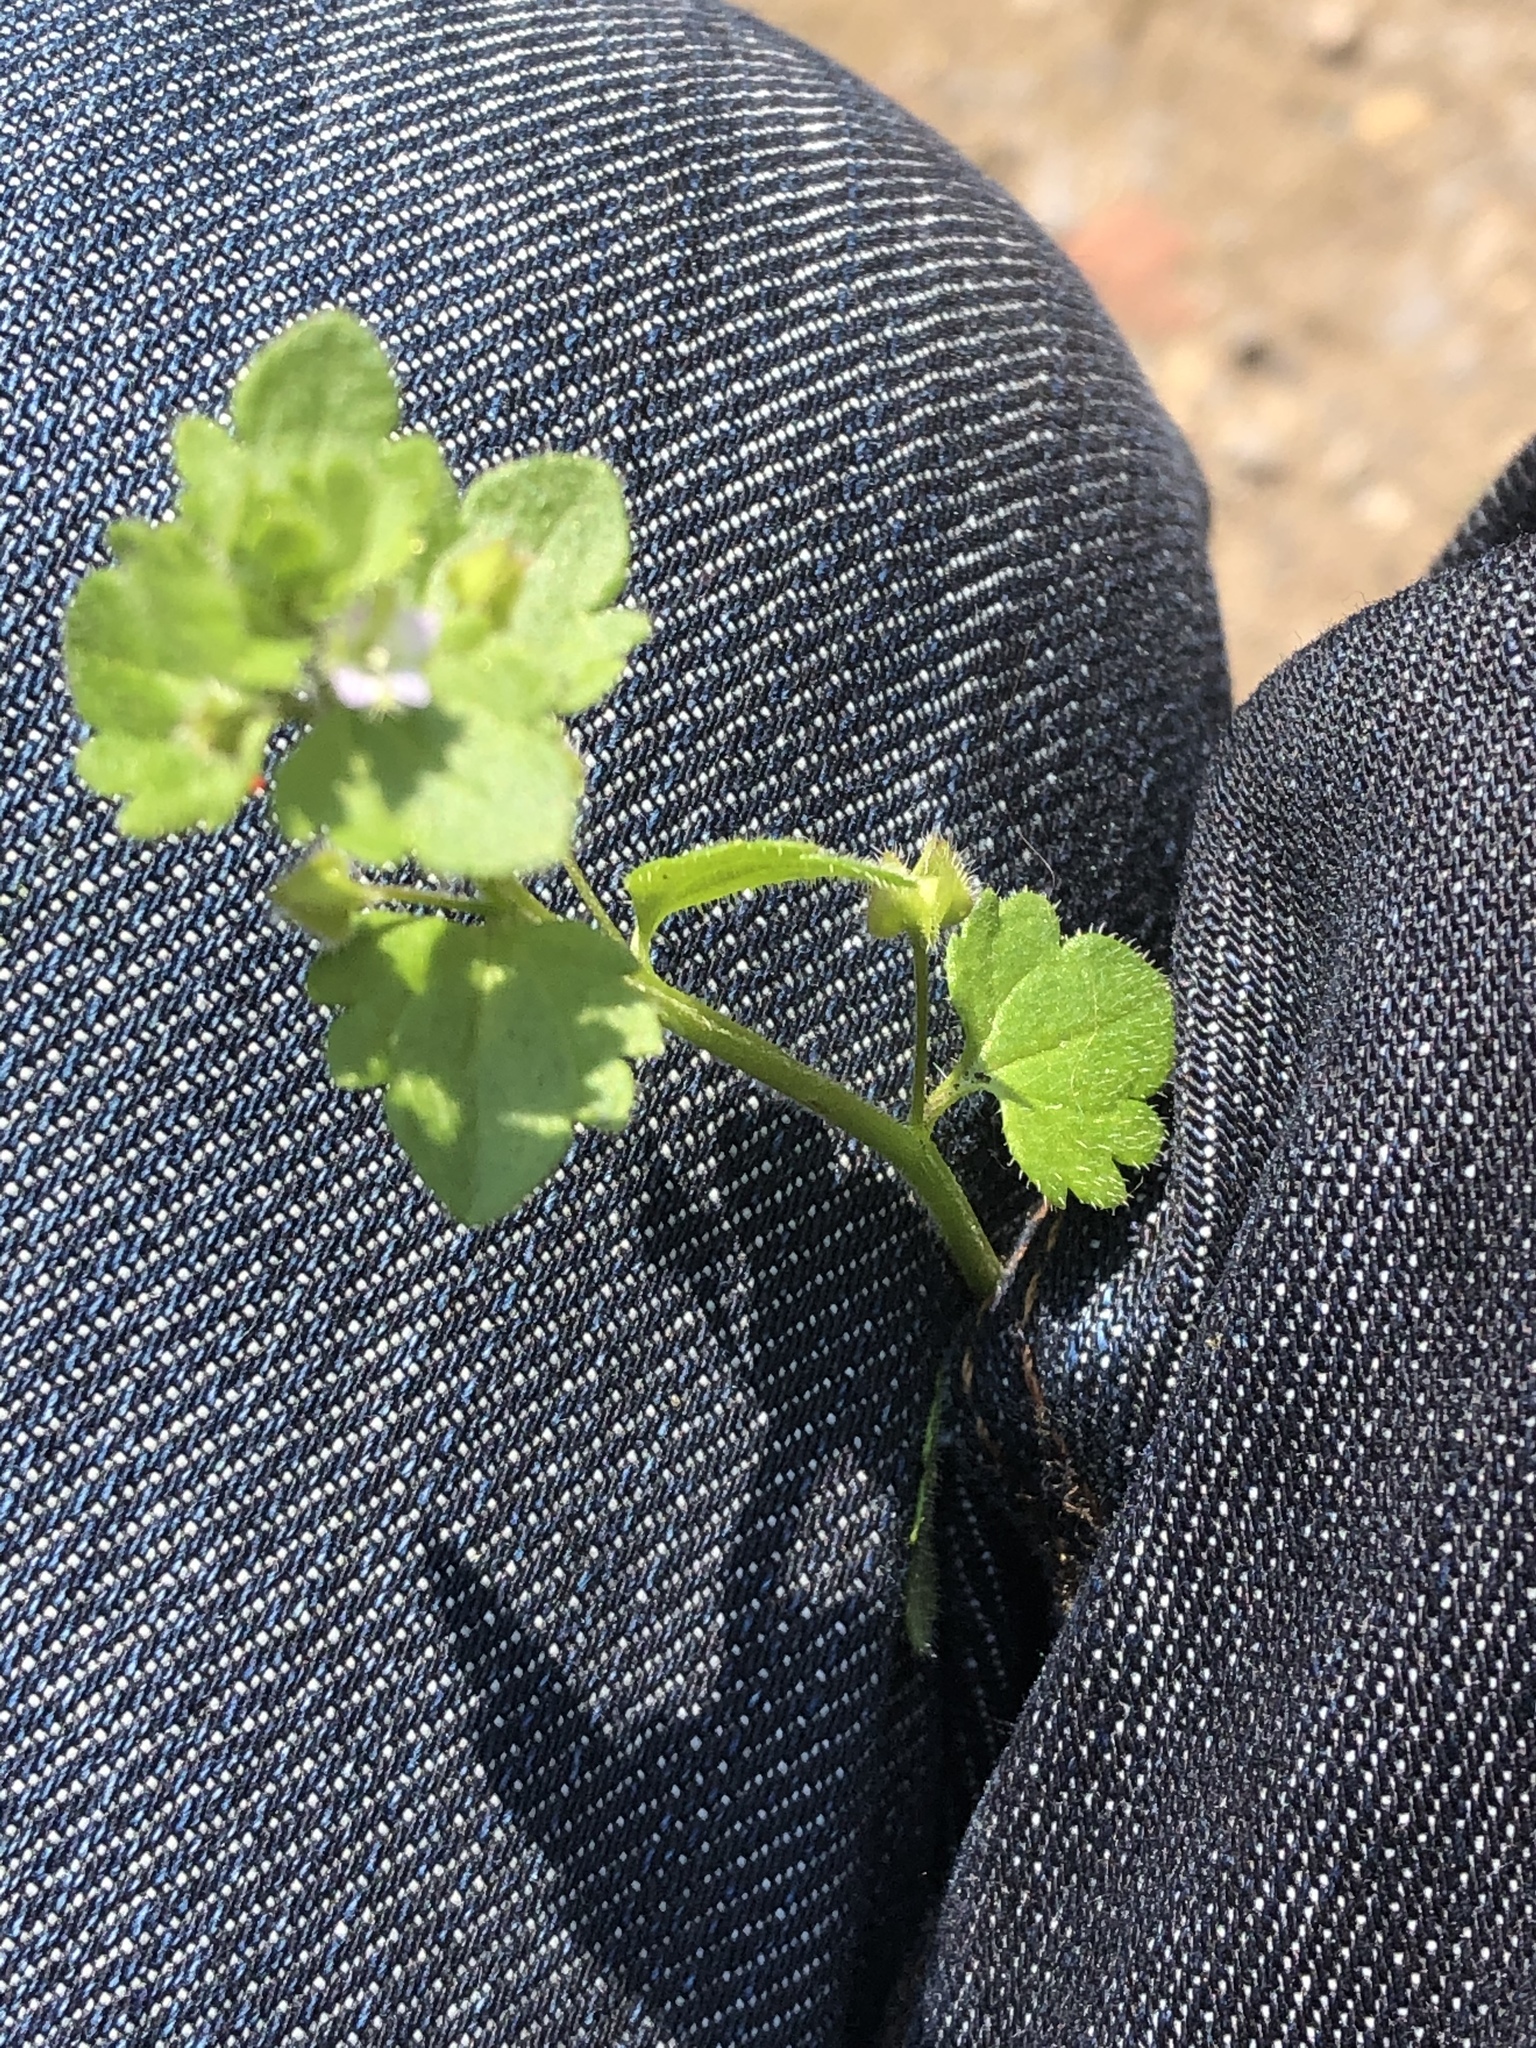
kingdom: Plantae
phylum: Tracheophyta
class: Magnoliopsida
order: Lamiales
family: Plantaginaceae
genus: Veronica
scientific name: Veronica hederifolia
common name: Ivy-leaved speedwell
